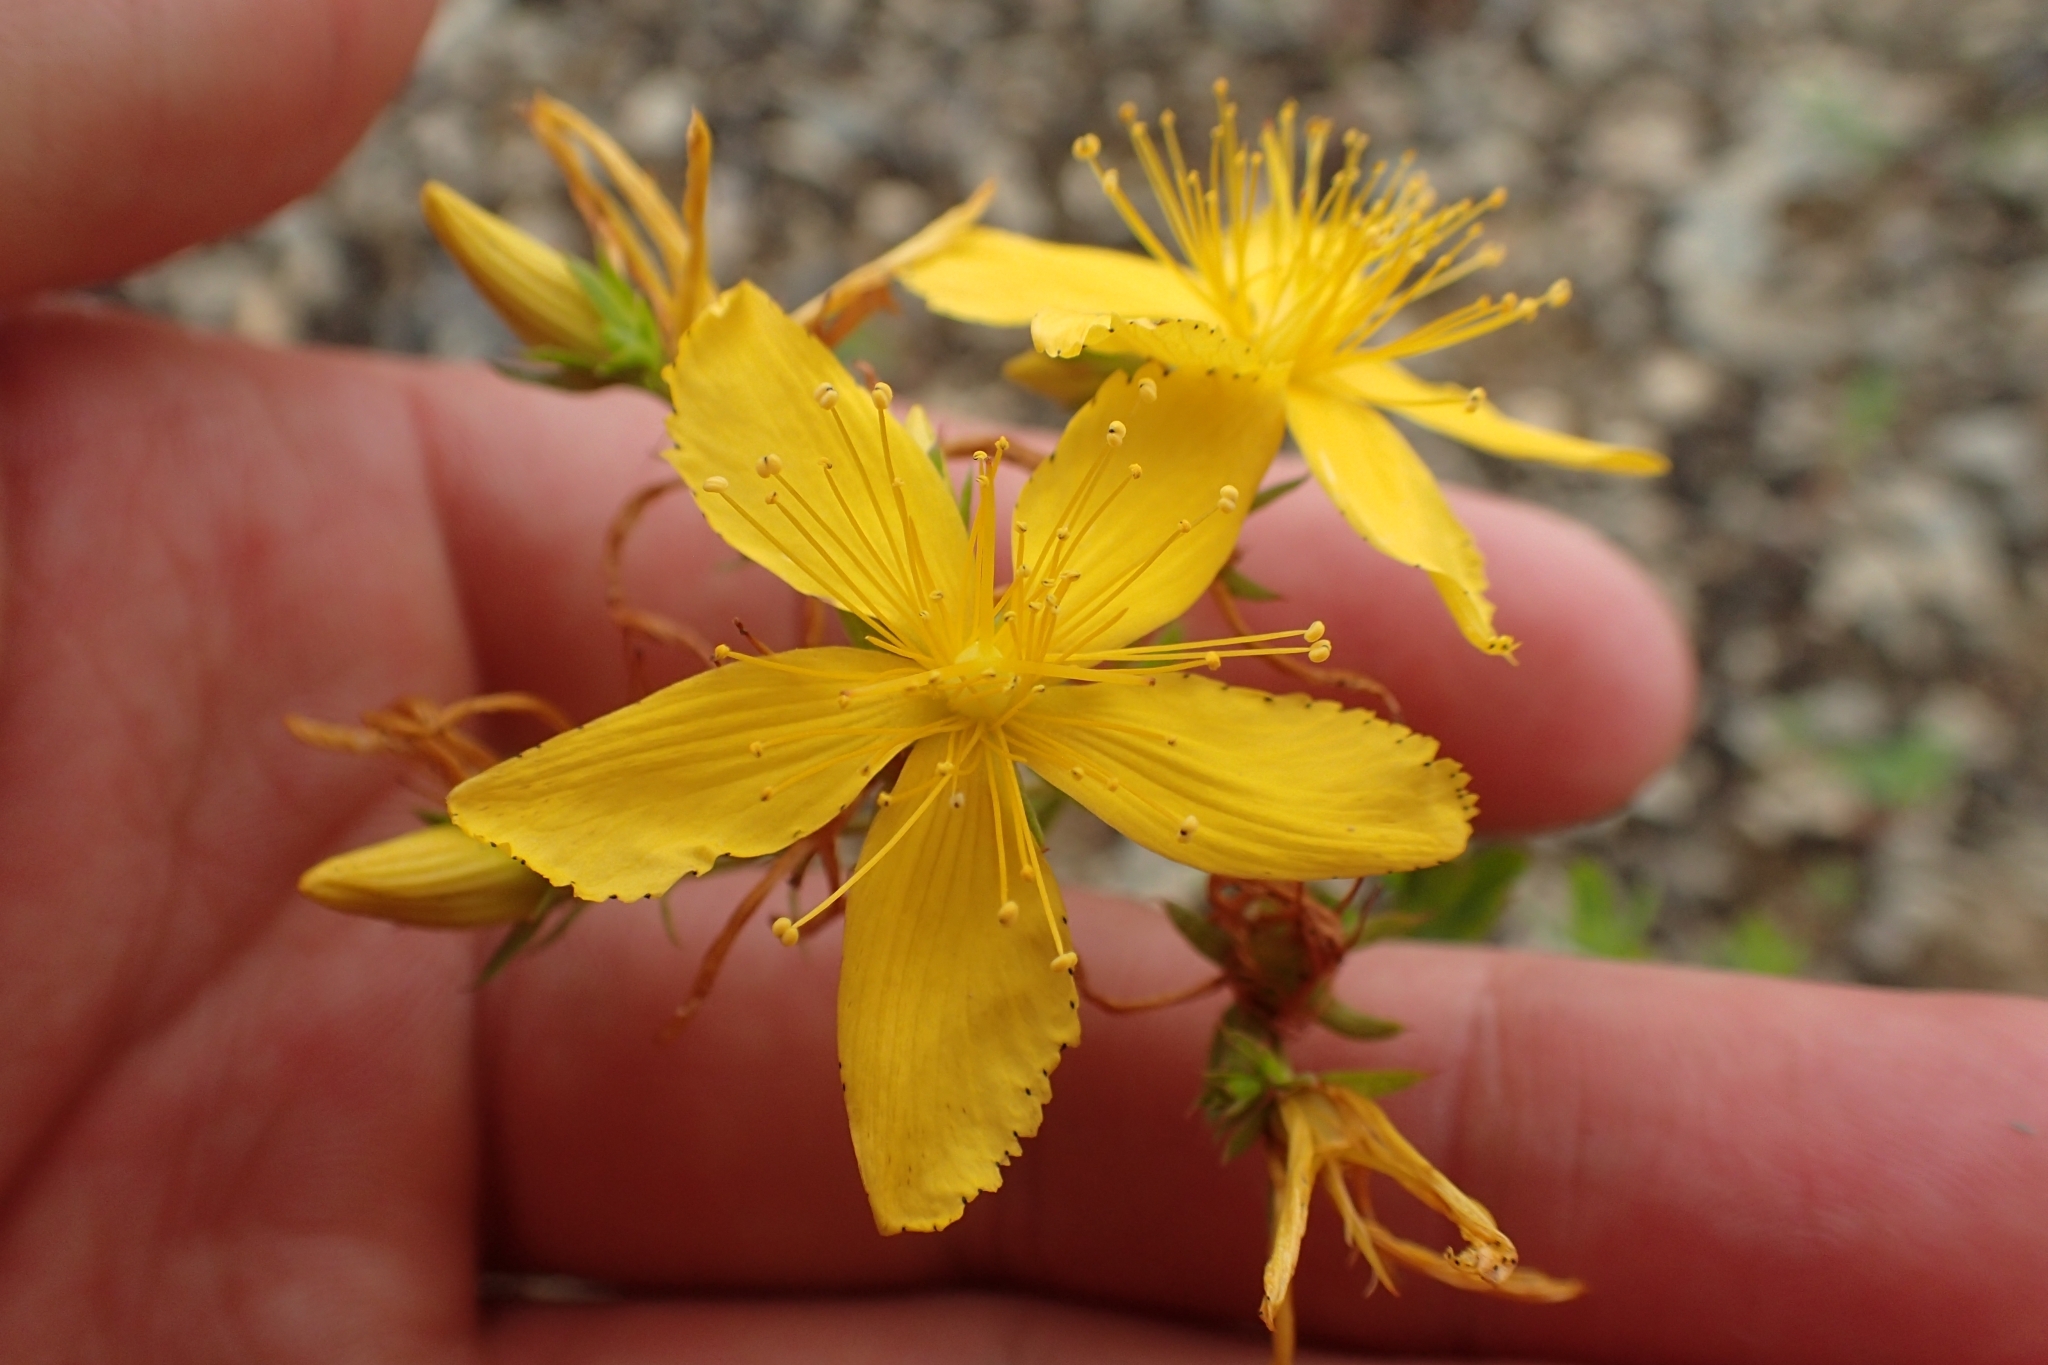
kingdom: Plantae
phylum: Tracheophyta
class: Magnoliopsida
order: Malpighiales
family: Hypericaceae
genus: Hypericum
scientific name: Hypericum perforatum
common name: Common st. johnswort
